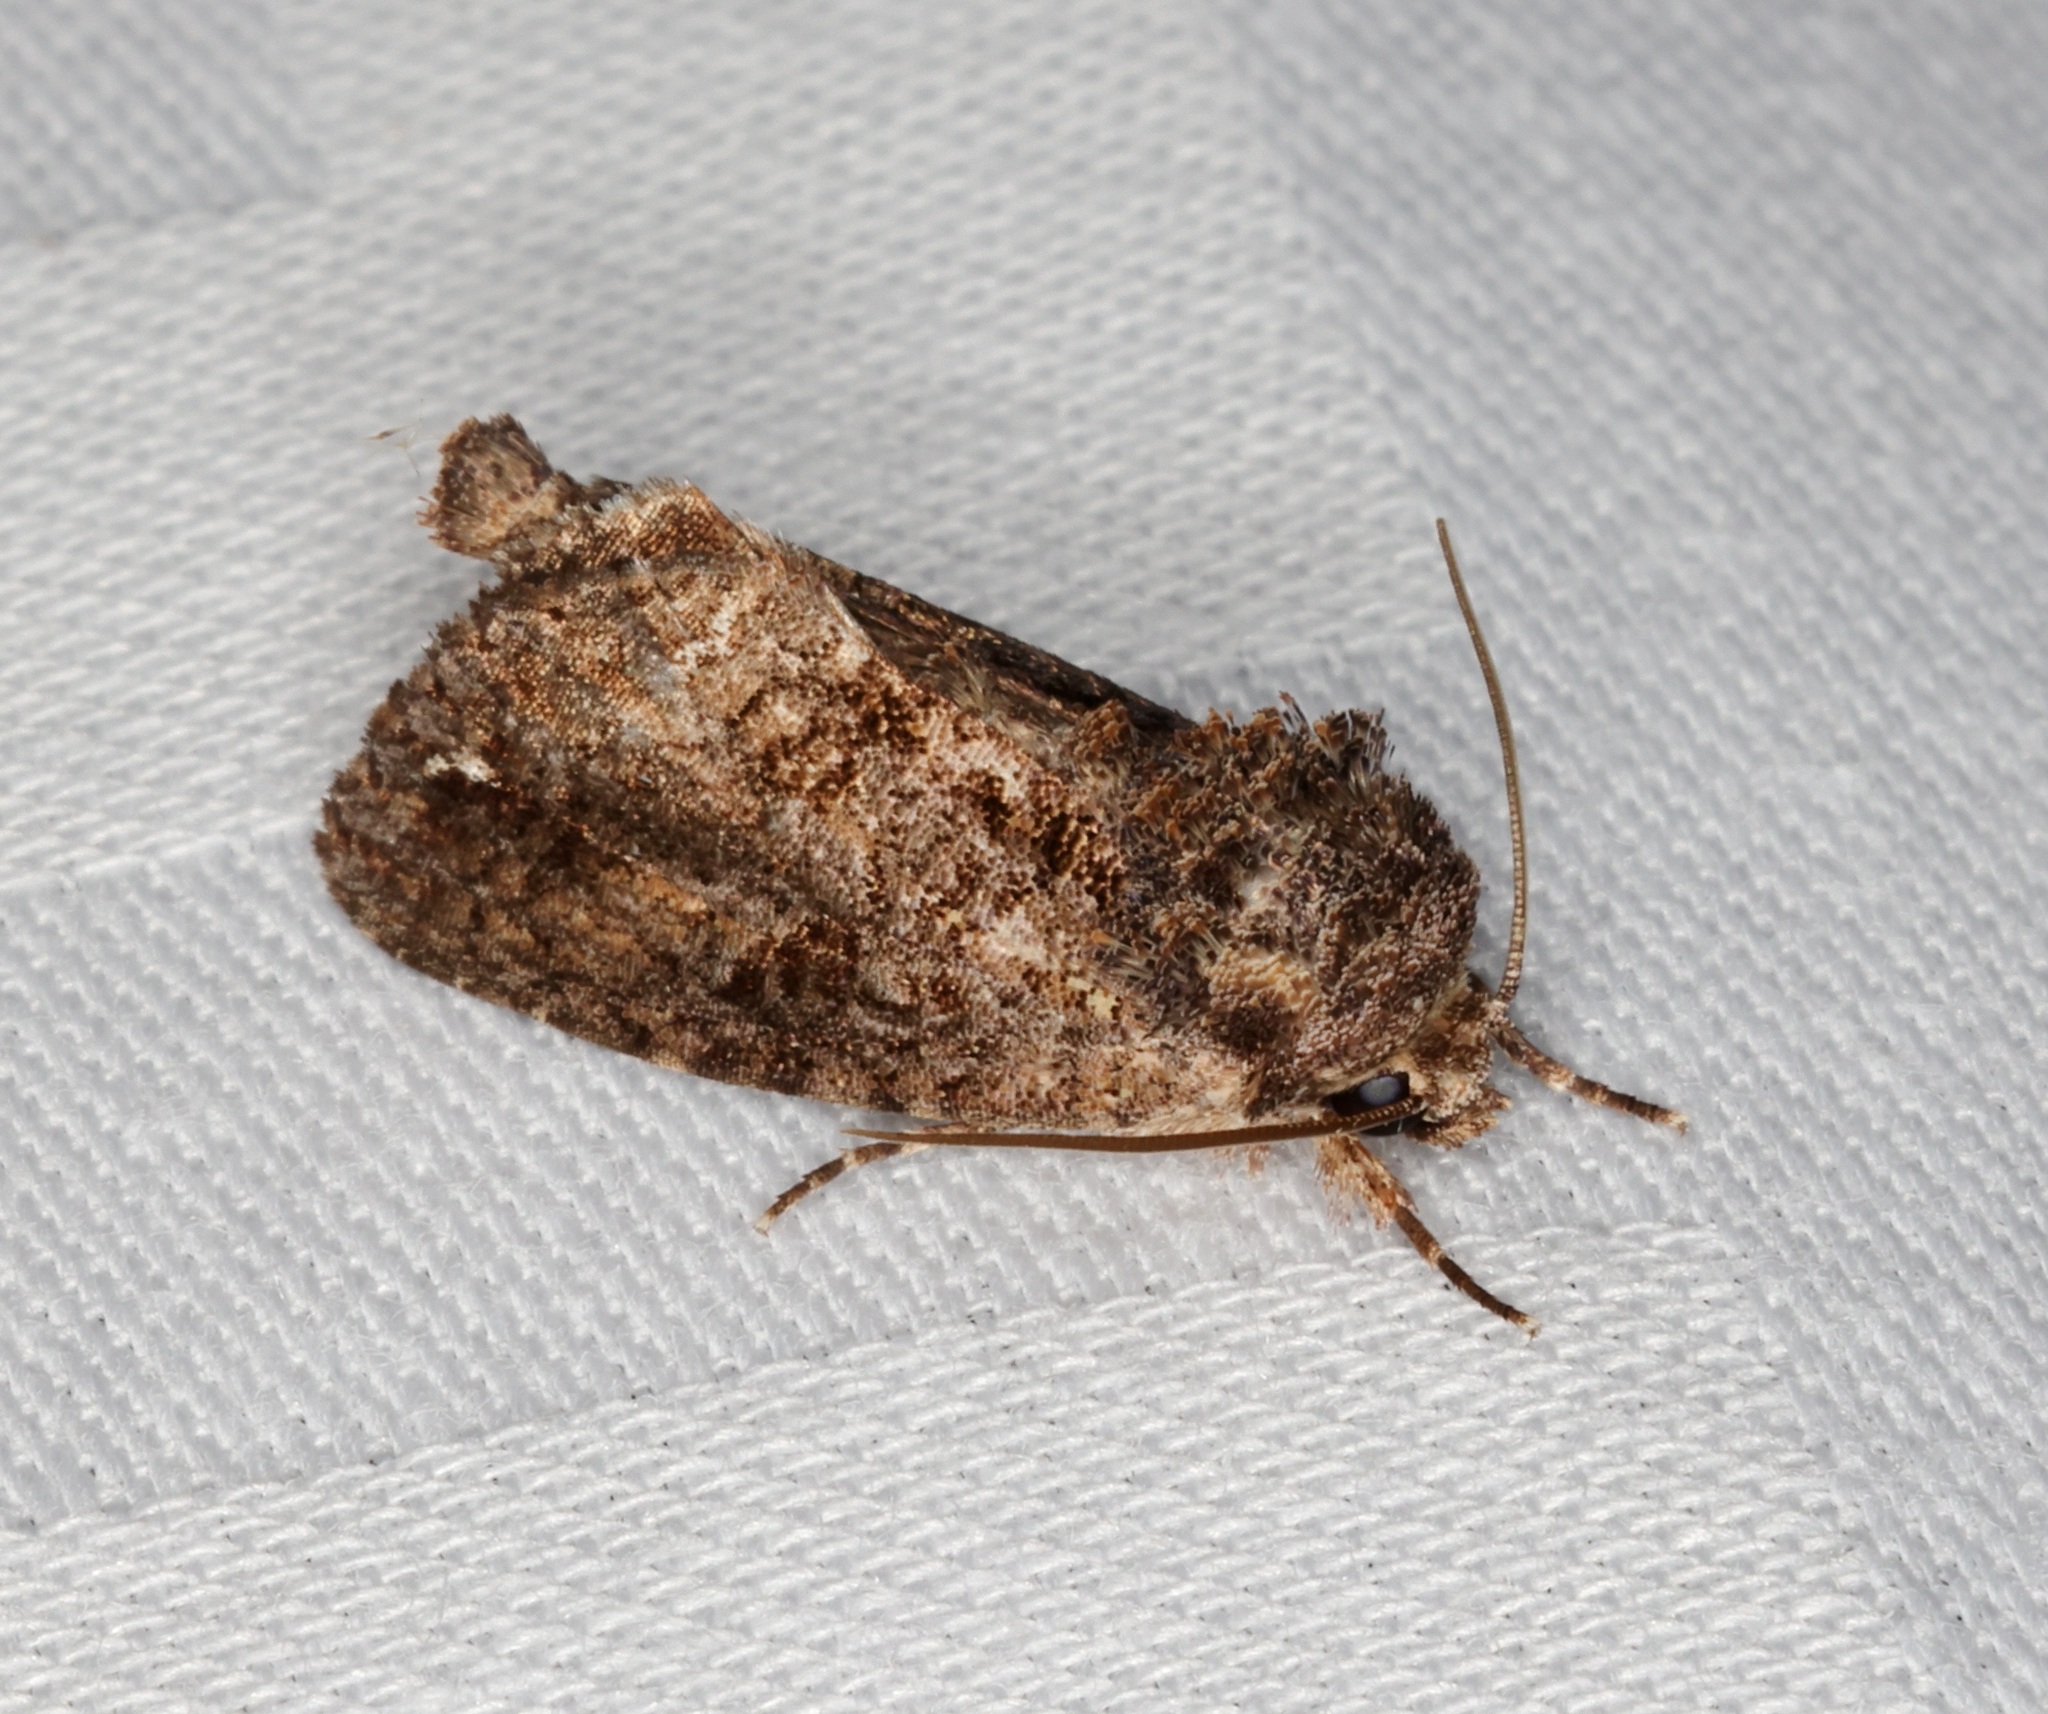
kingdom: Animalia
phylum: Arthropoda
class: Insecta
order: Lepidoptera
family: Noctuidae
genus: Paradiopa
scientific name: Paradiopa postfusca
